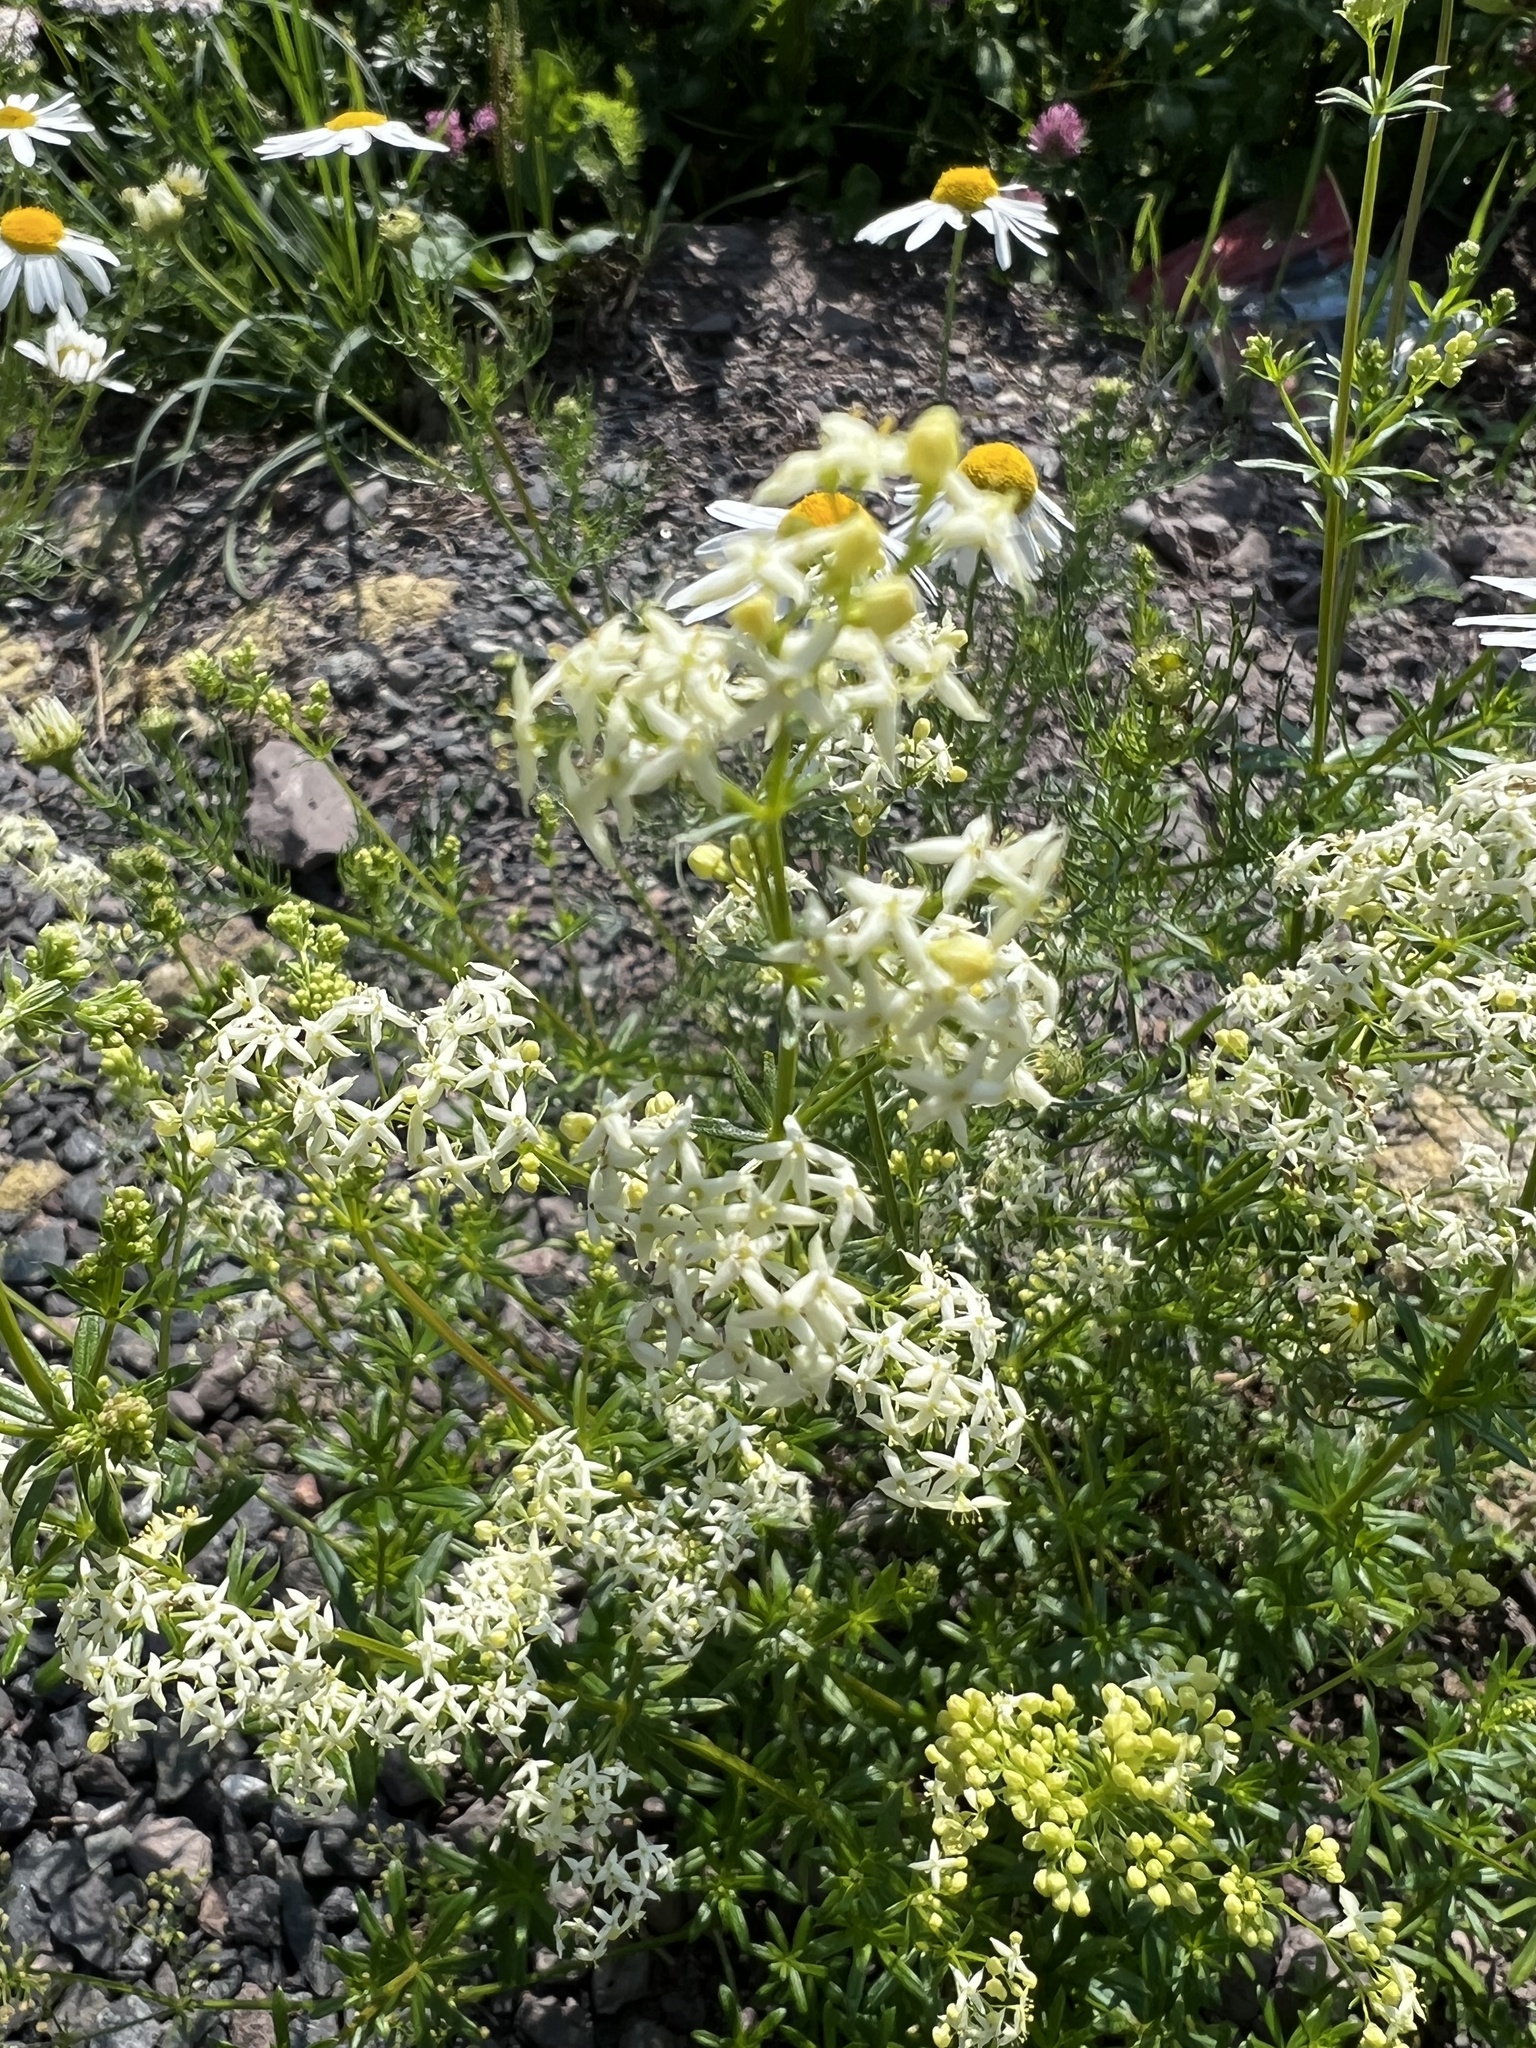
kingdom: Plantae
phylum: Tracheophyta
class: Magnoliopsida
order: Gentianales
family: Rubiaceae
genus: Galium
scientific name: Galium album
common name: White bedstraw
